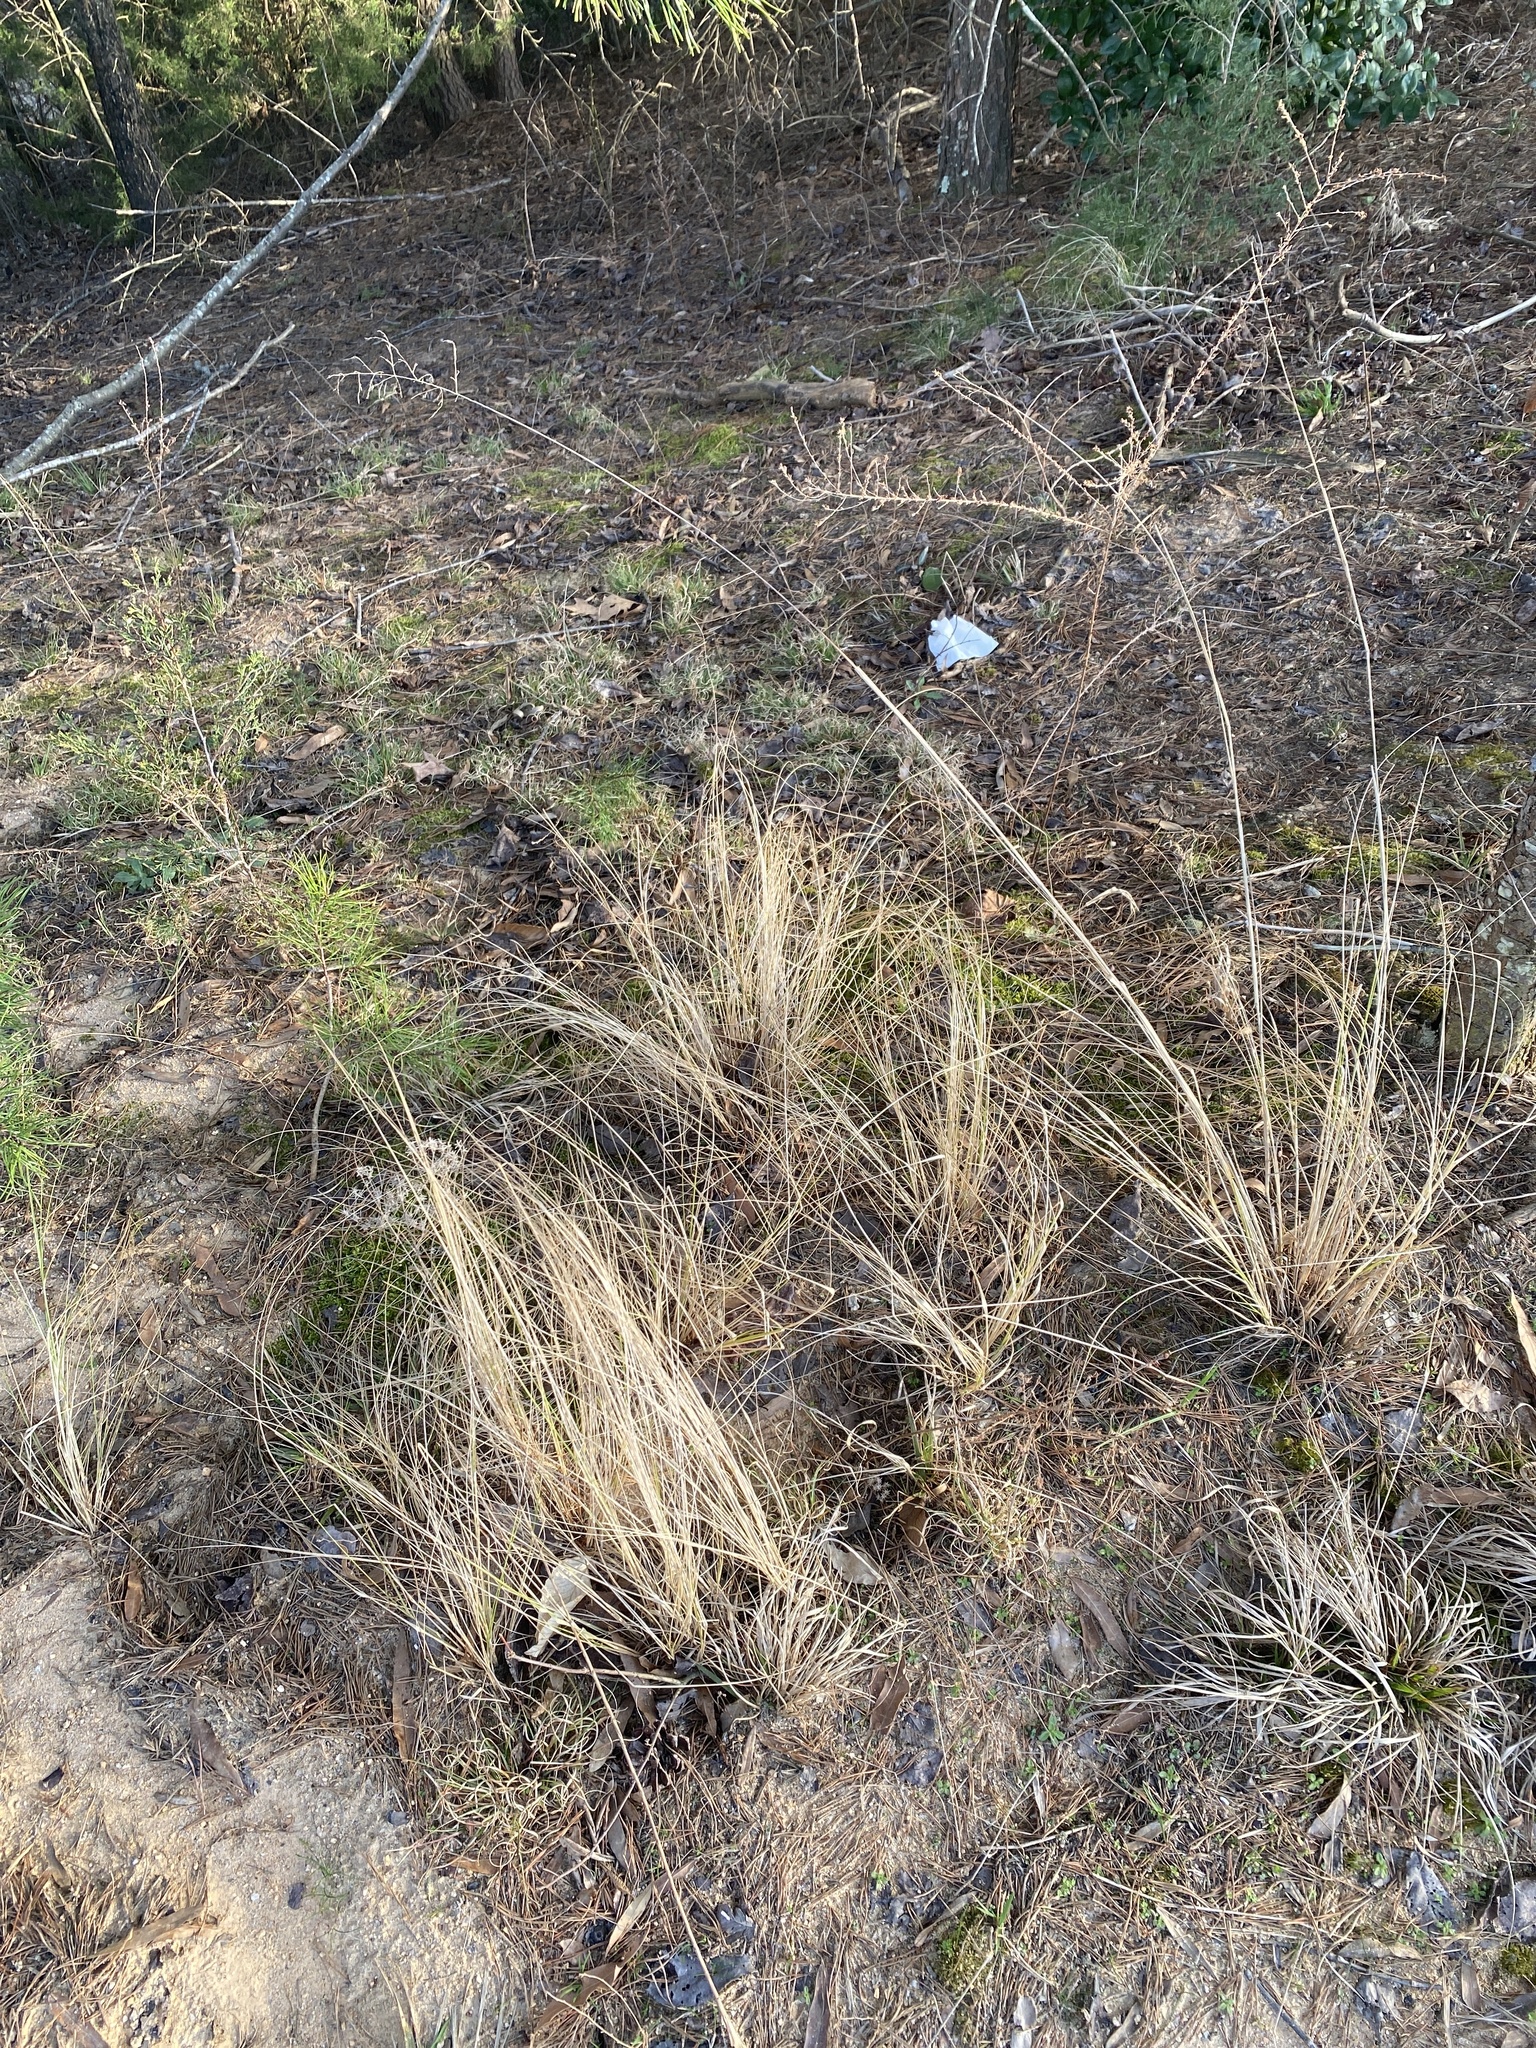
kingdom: Plantae
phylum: Tracheophyta
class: Liliopsida
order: Poales
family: Poaceae
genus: Eragrostis
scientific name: Eragrostis curvula
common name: African love-grass
